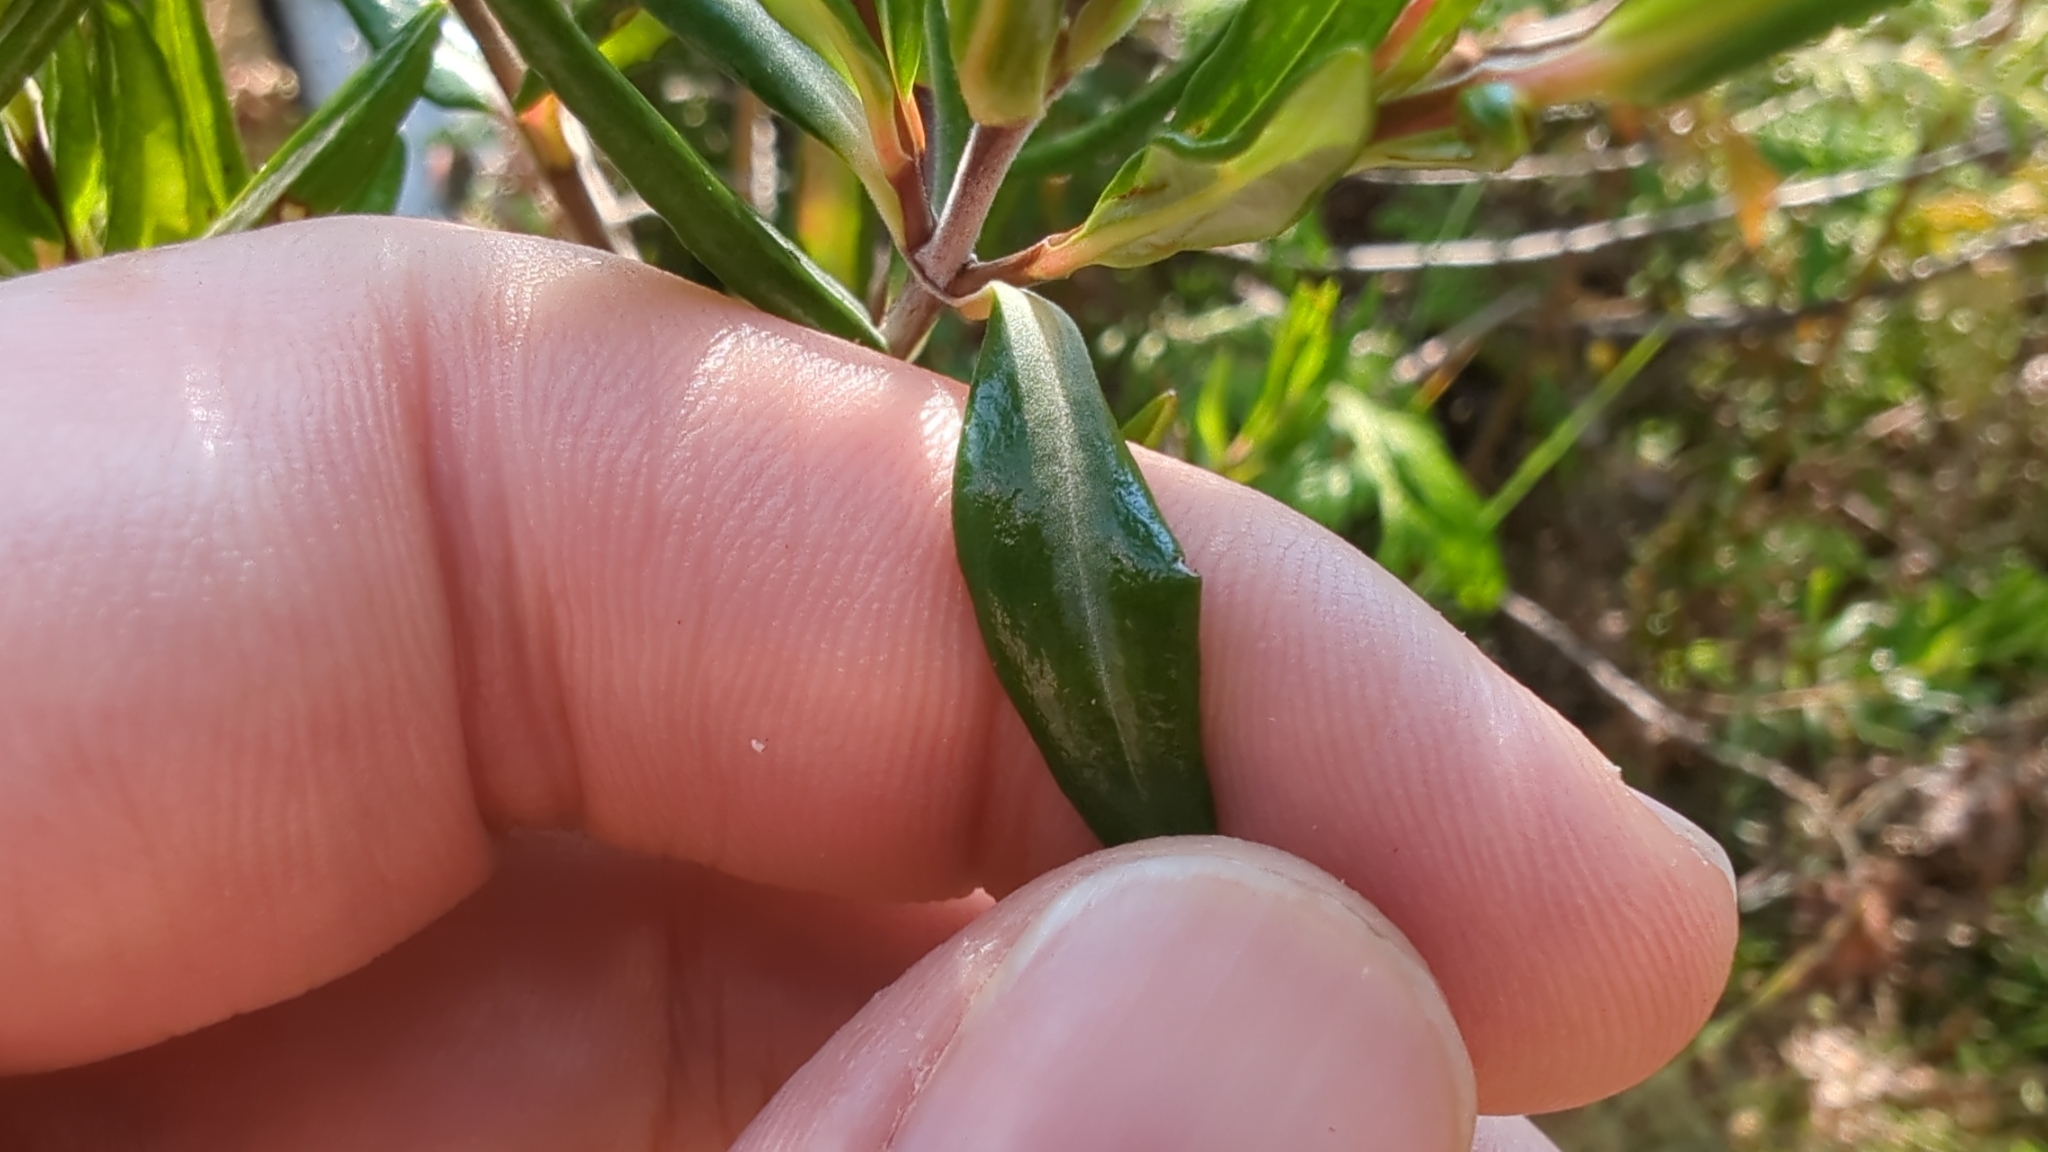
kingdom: Plantae
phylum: Tracheophyta
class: Magnoliopsida
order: Ericales
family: Ericaceae
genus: Kalmia
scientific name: Kalmia microphylla
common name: Alpine bog laurel
